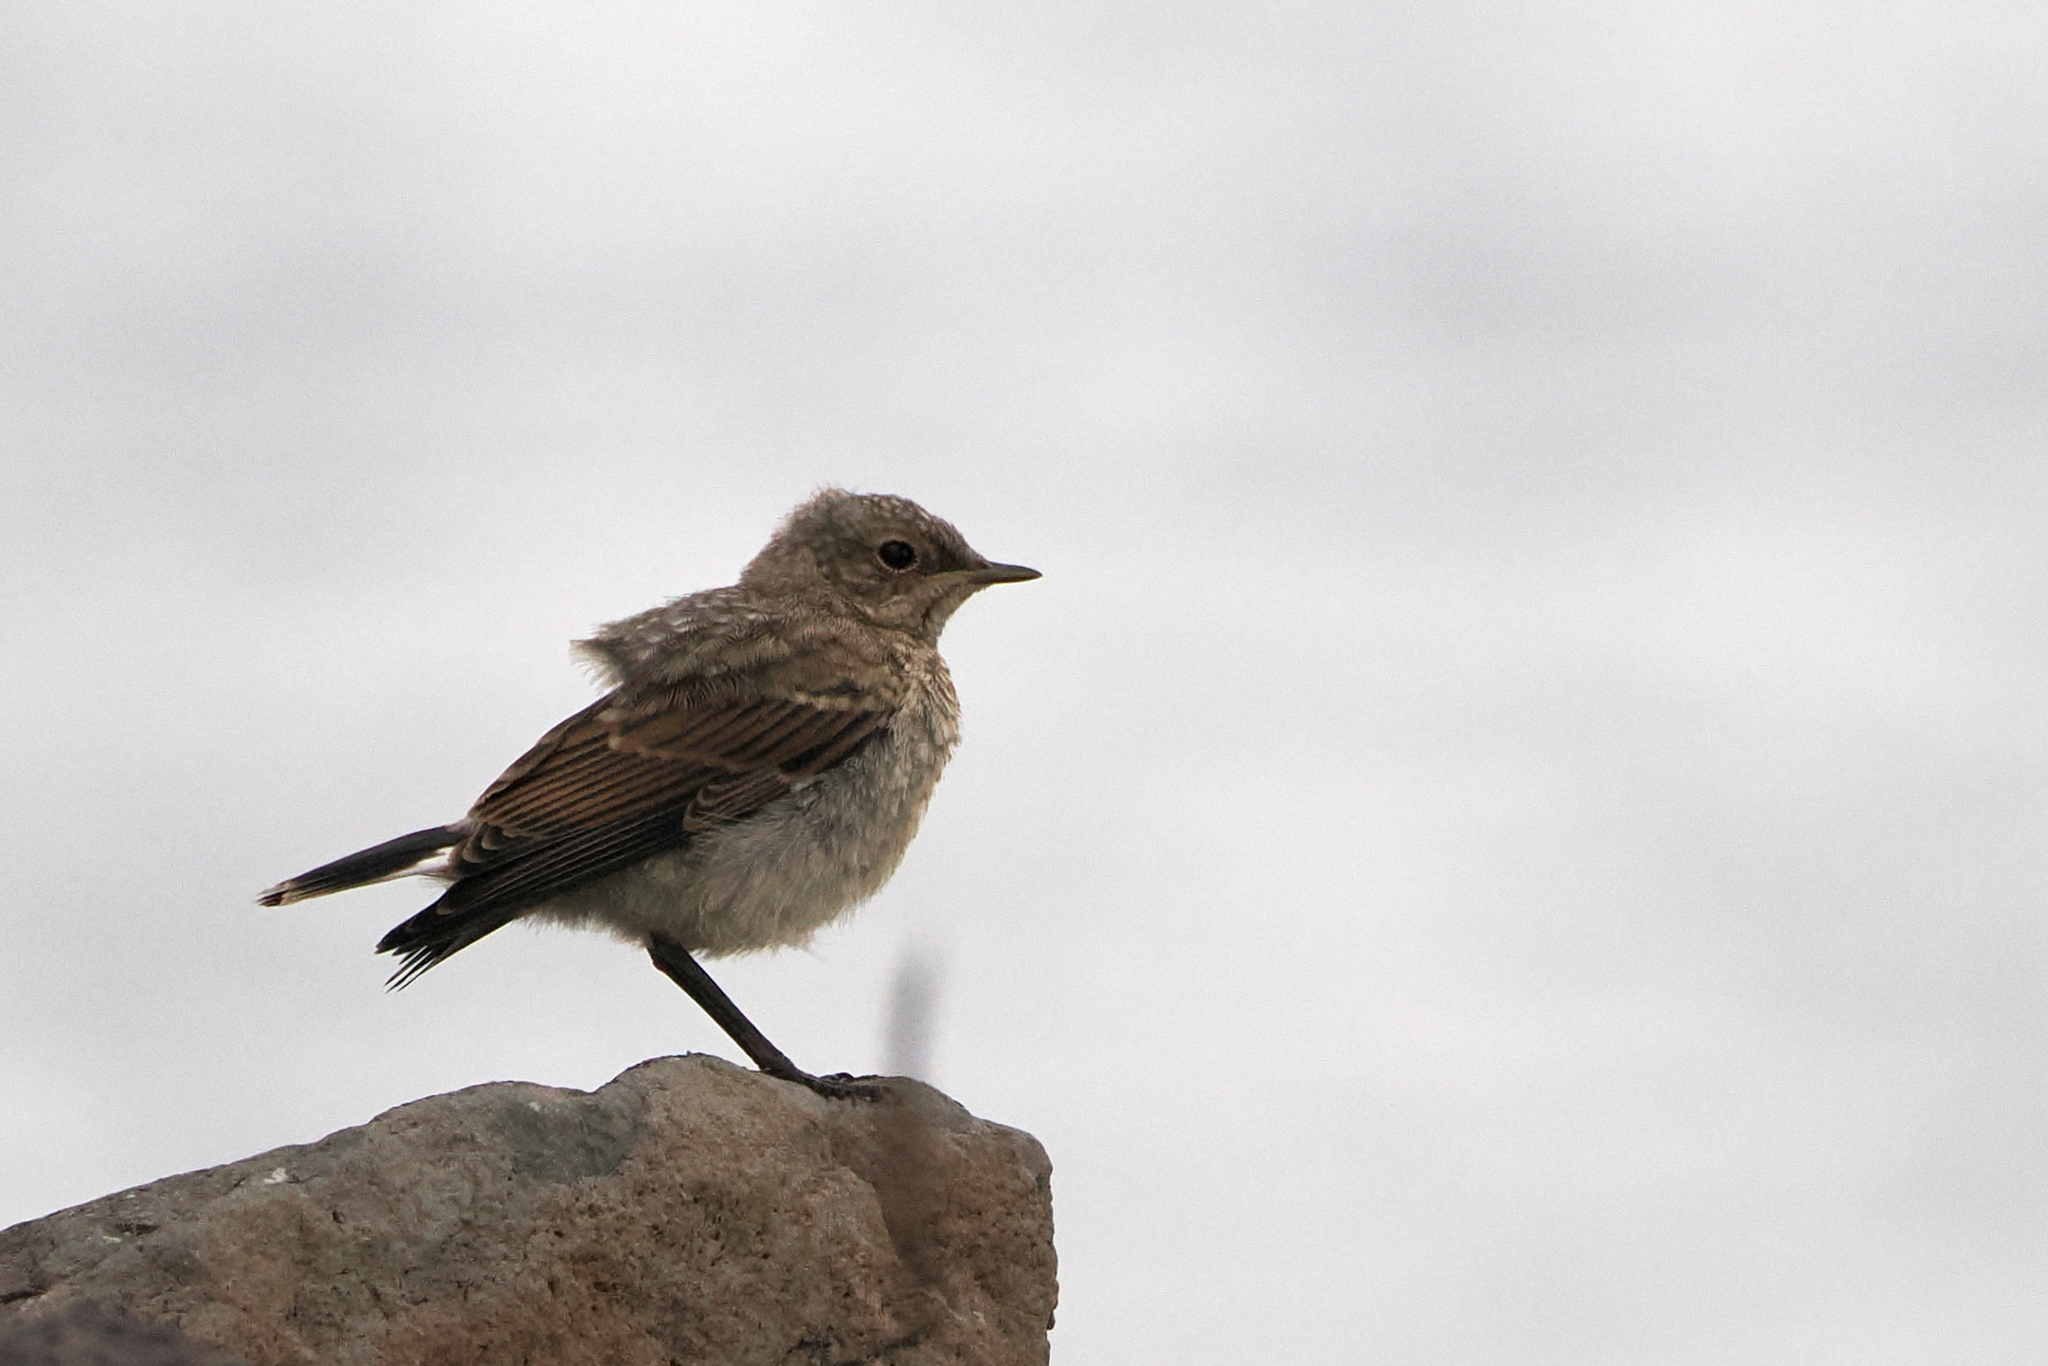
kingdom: Animalia
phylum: Chordata
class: Aves
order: Passeriformes
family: Muscicapidae
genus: Oenanthe
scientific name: Oenanthe oenanthe
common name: Northern wheatear
